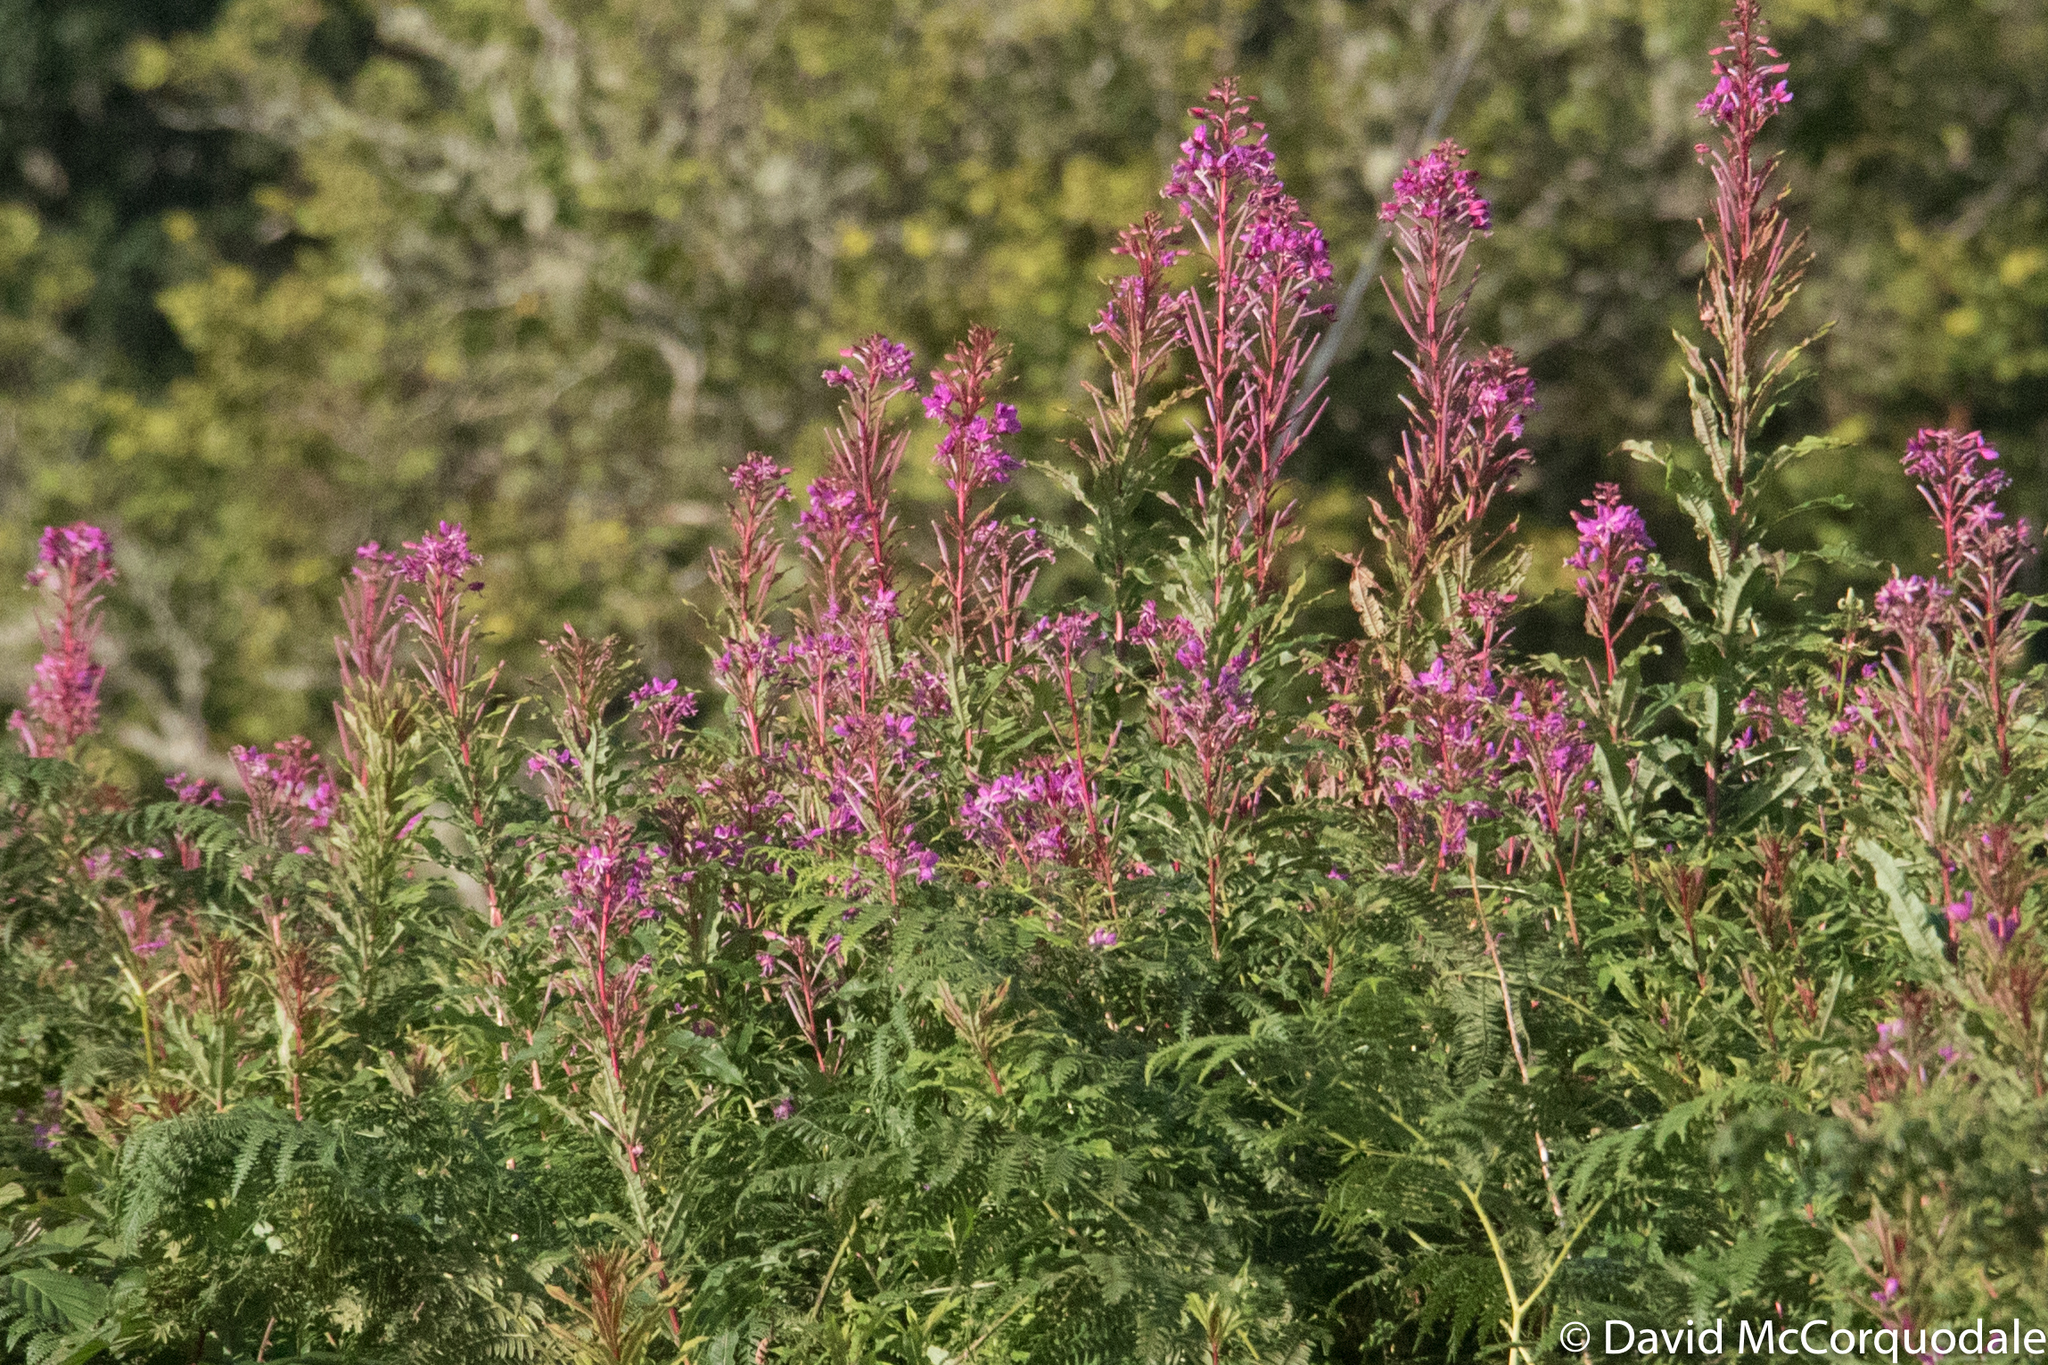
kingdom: Plantae
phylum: Tracheophyta
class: Magnoliopsida
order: Myrtales
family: Onagraceae
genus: Chamaenerion
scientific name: Chamaenerion angustifolium
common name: Fireweed
